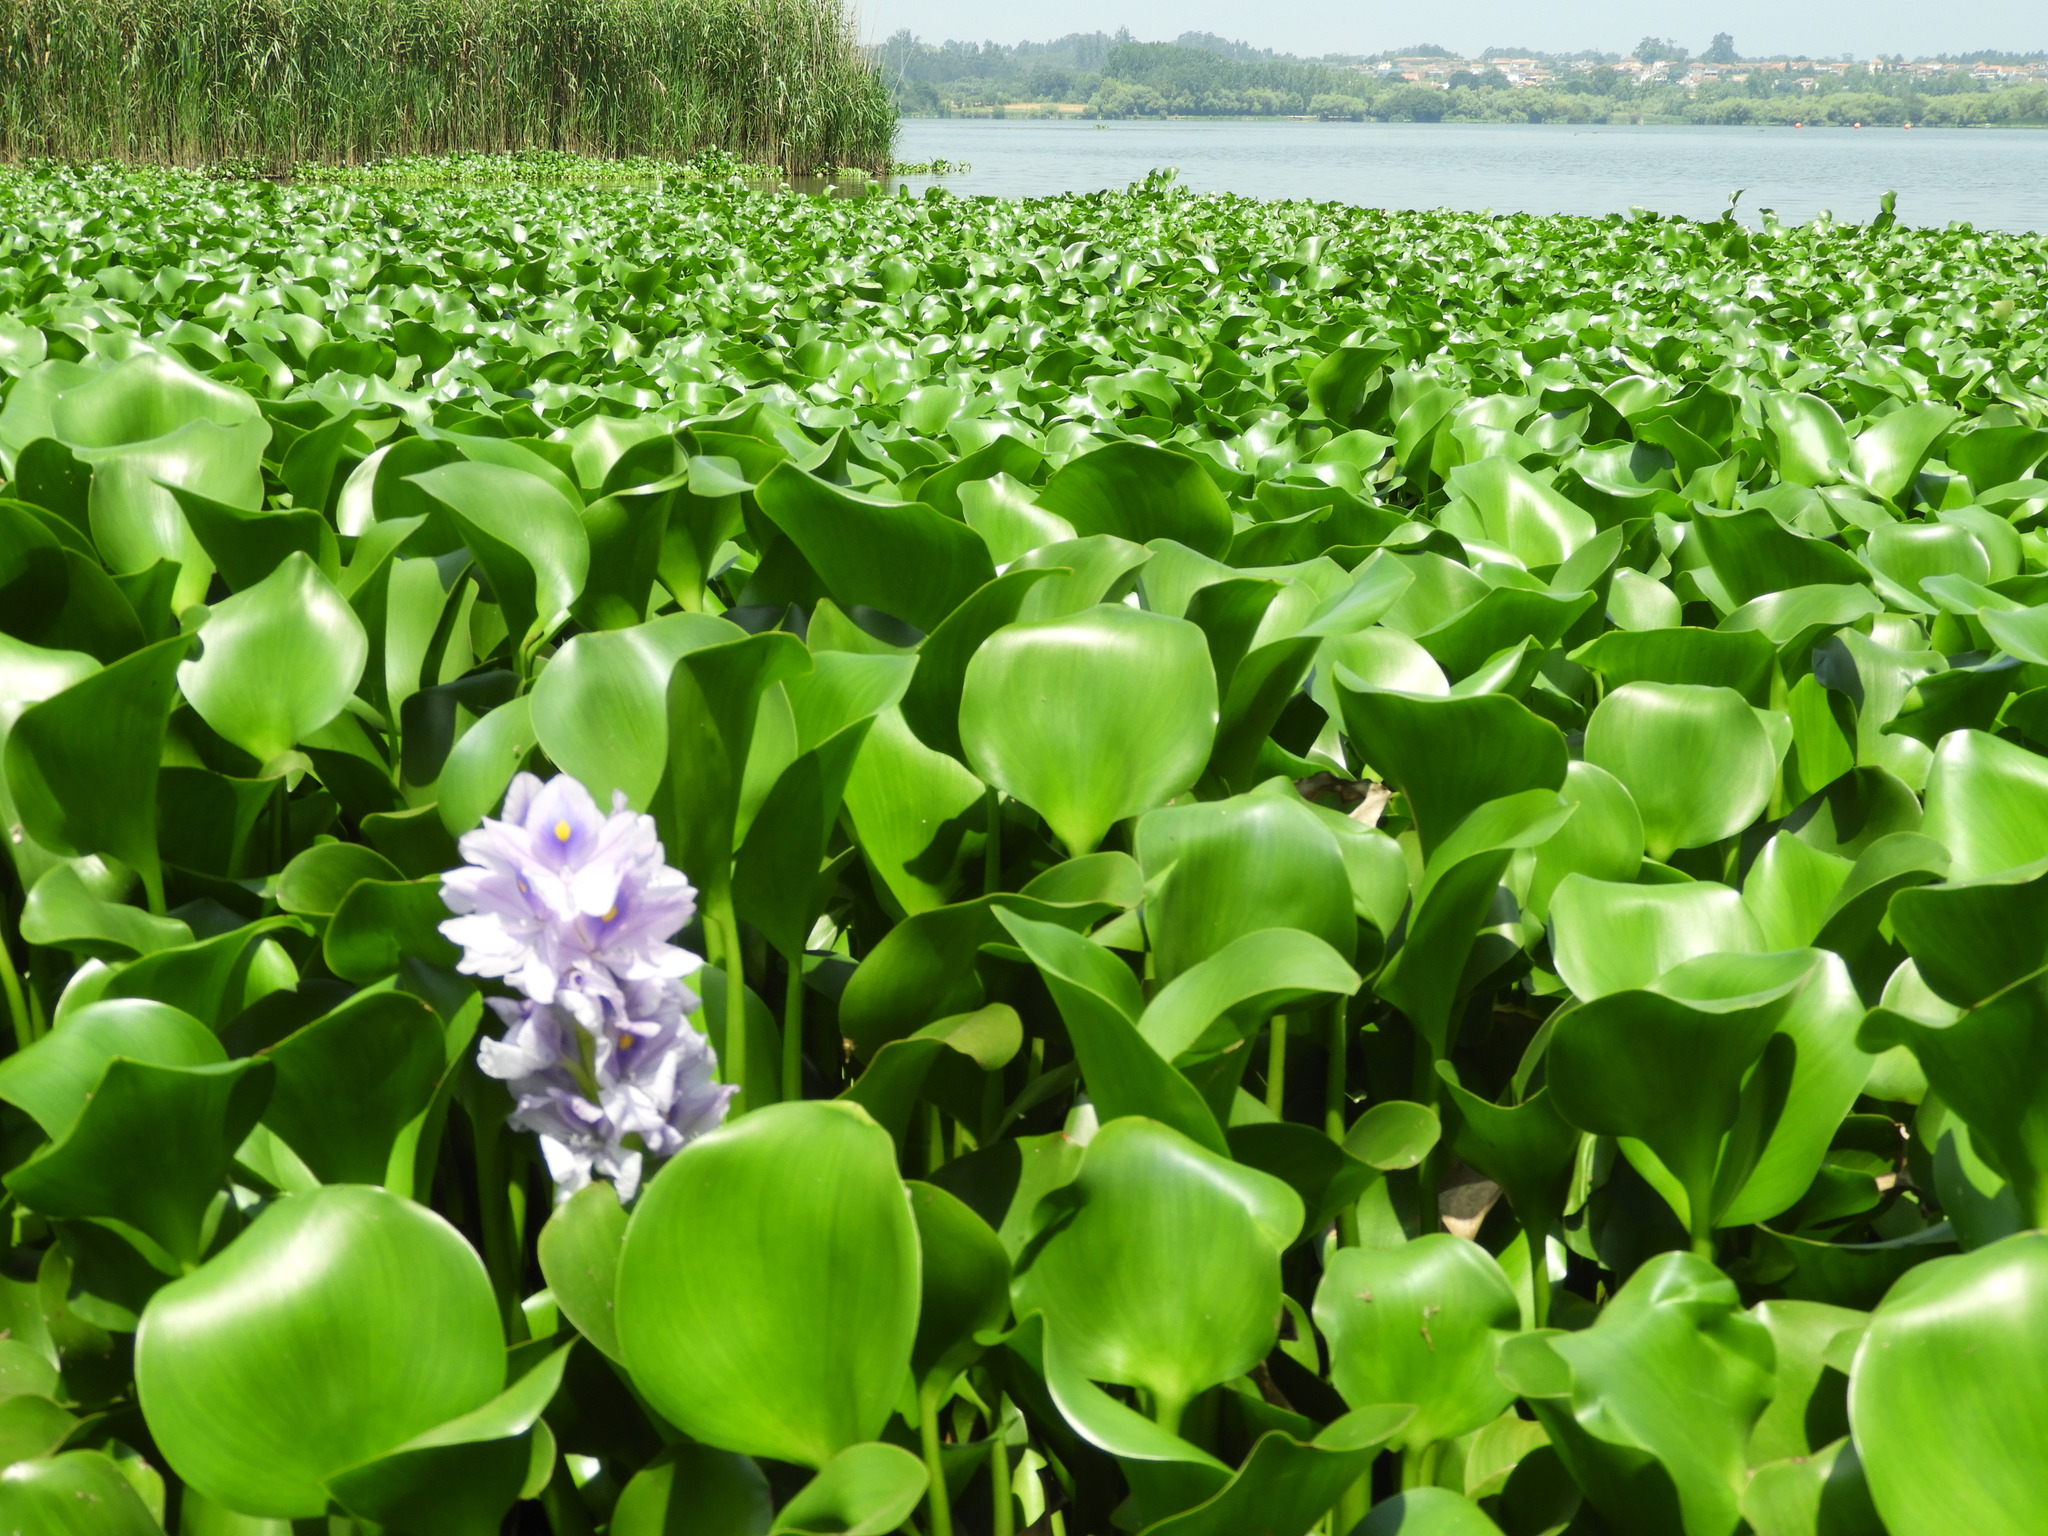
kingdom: Plantae
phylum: Tracheophyta
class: Liliopsida
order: Commelinales
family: Pontederiaceae
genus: Pontederia
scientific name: Pontederia crassipes
